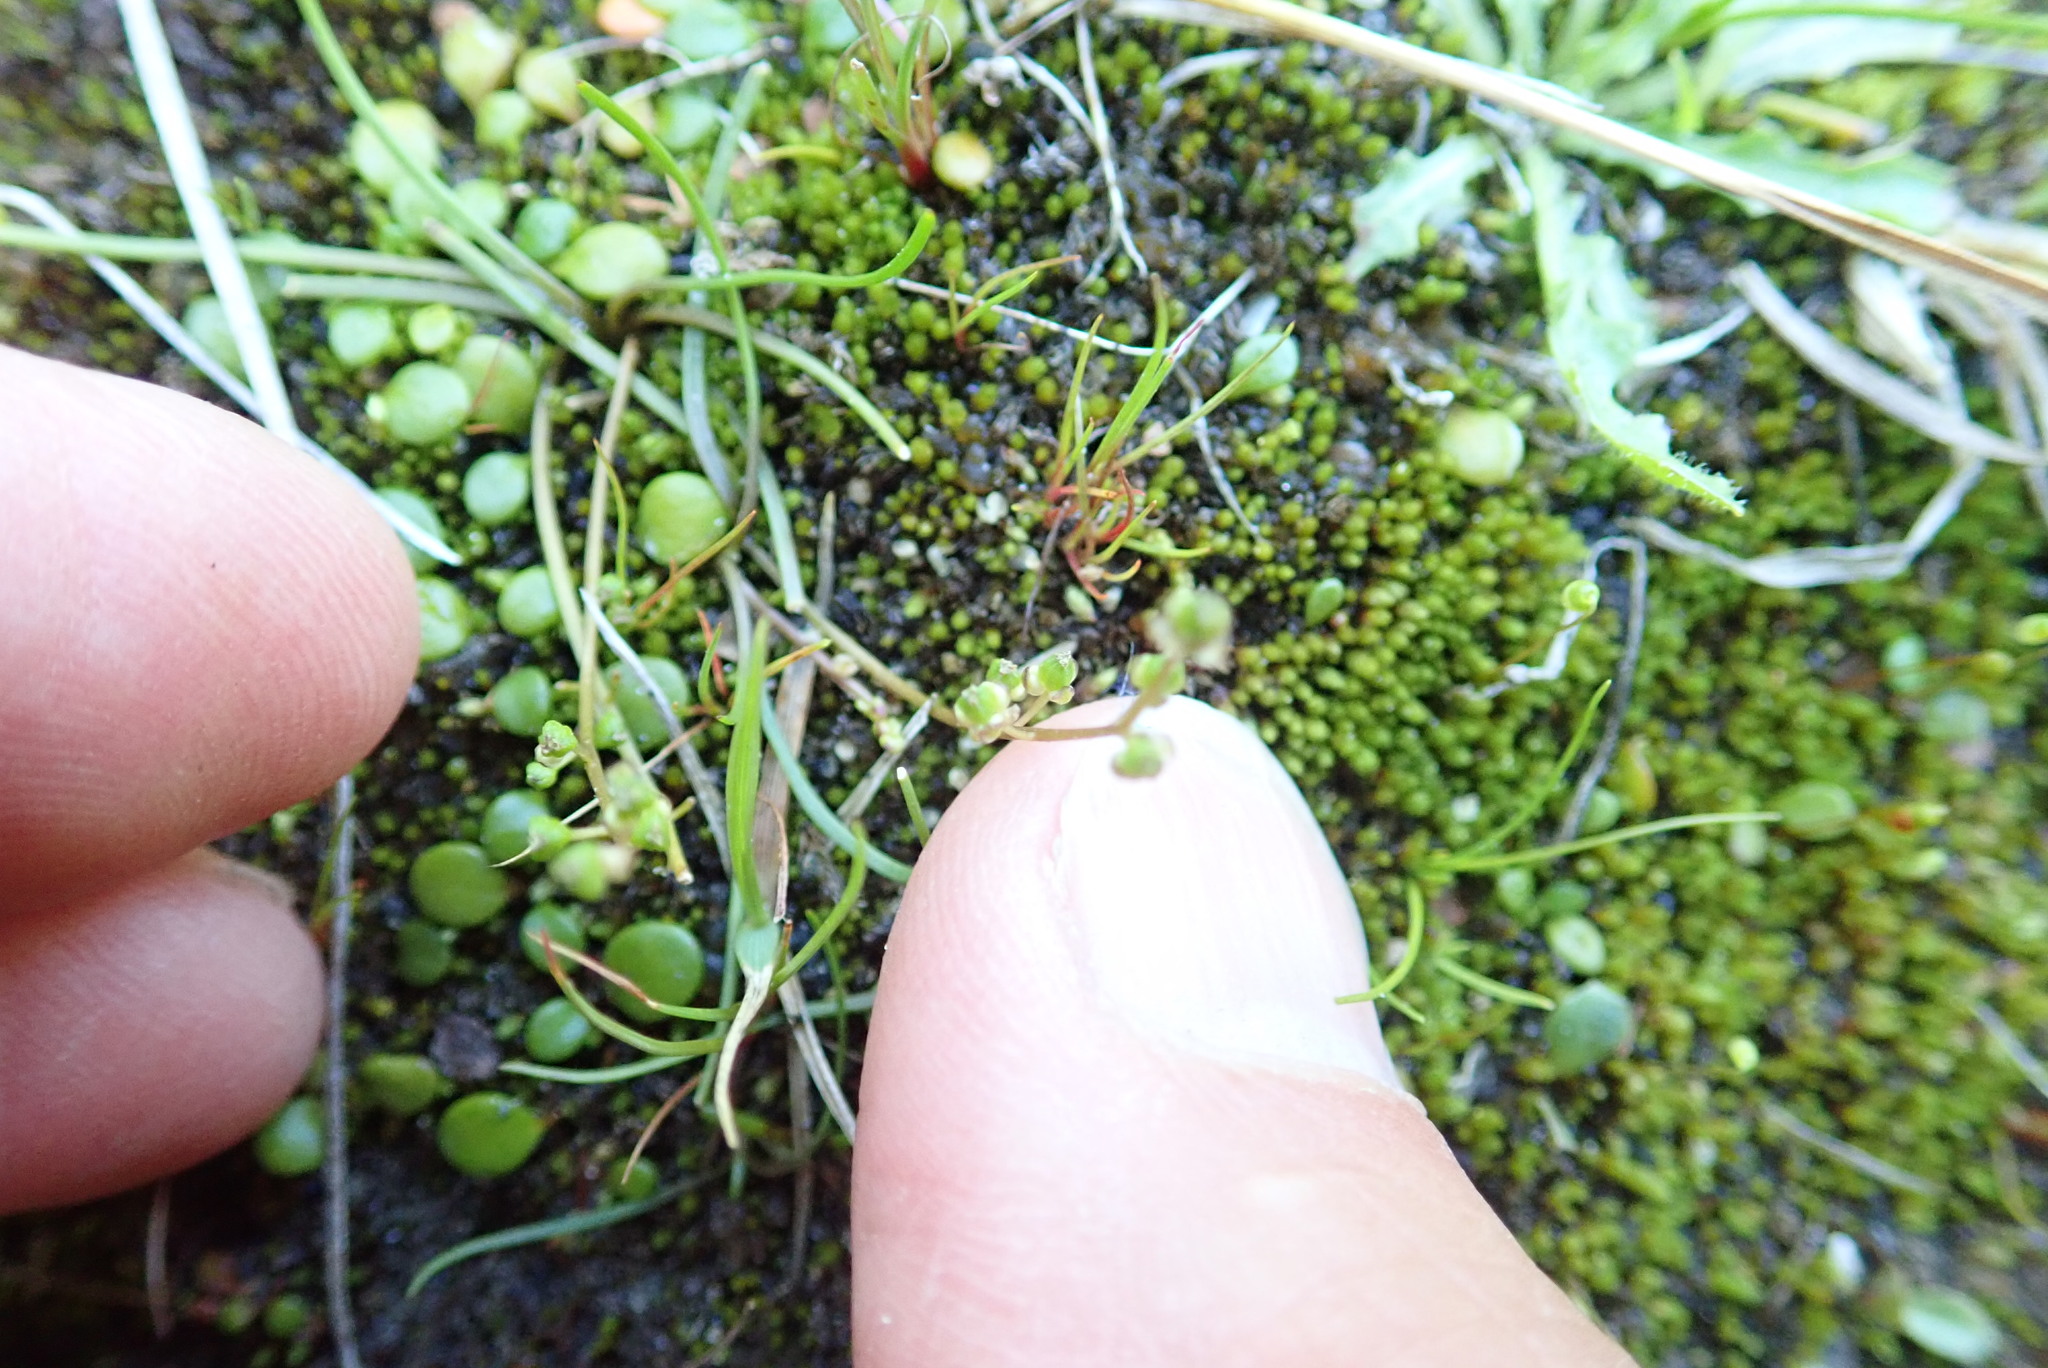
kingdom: Plantae
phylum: Tracheophyta
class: Liliopsida
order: Alismatales
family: Juncaginaceae
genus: Triglochin
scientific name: Triglochin striata
